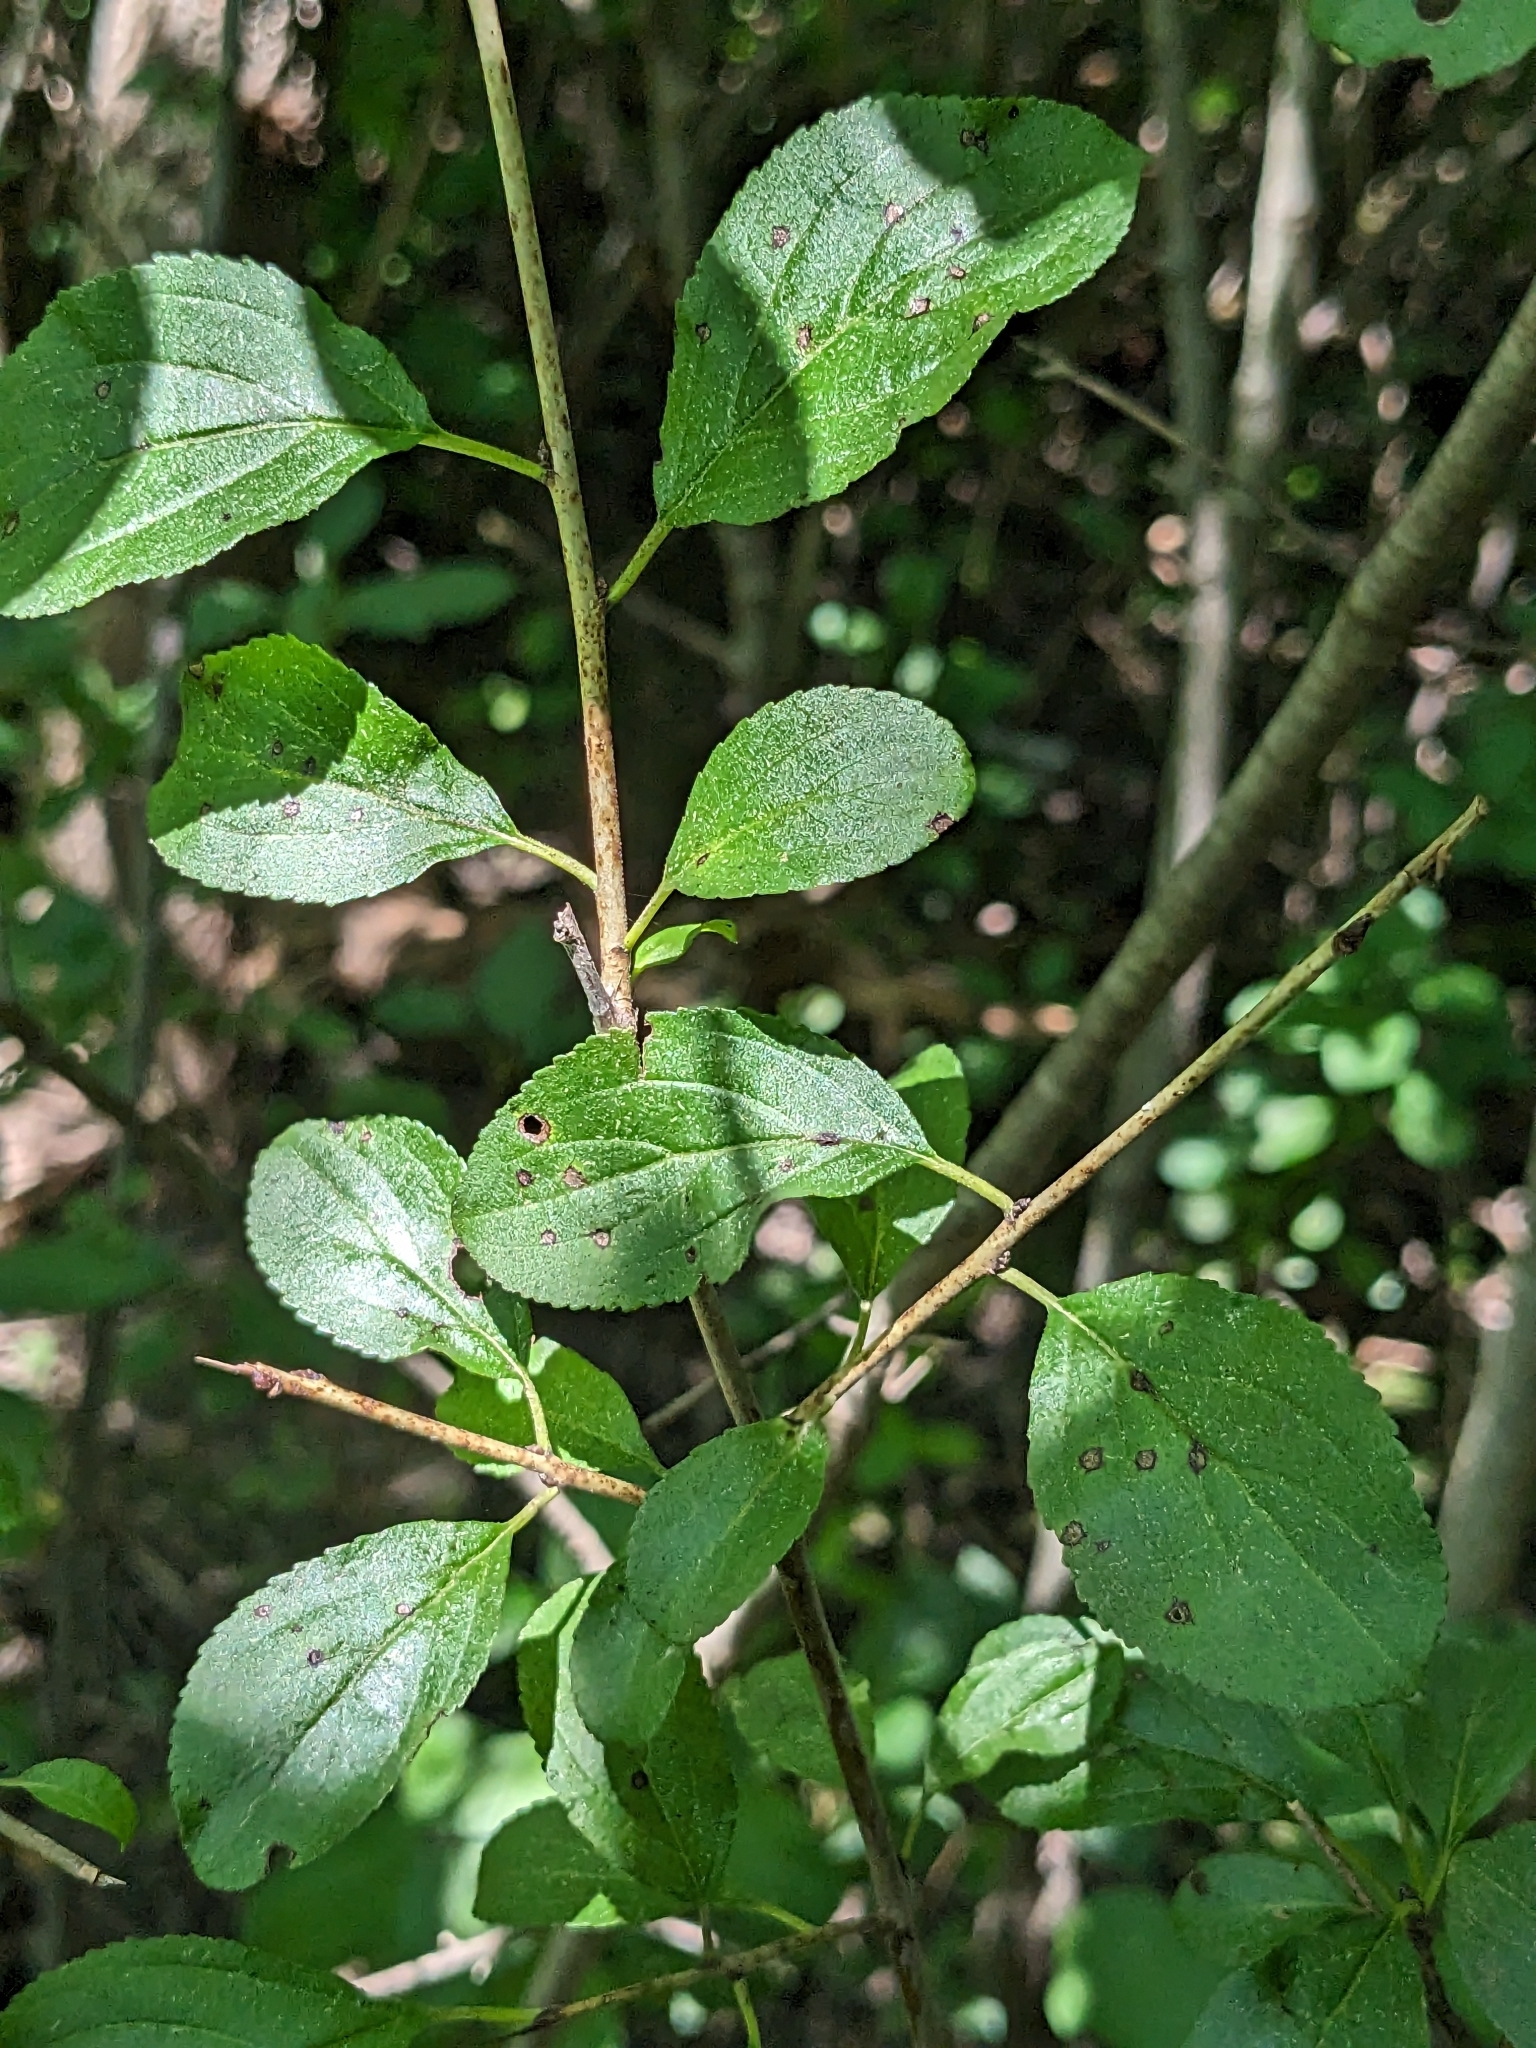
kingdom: Plantae
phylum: Tracheophyta
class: Magnoliopsida
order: Rosales
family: Rhamnaceae
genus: Rhamnus
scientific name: Rhamnus cathartica
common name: Common buckthorn
